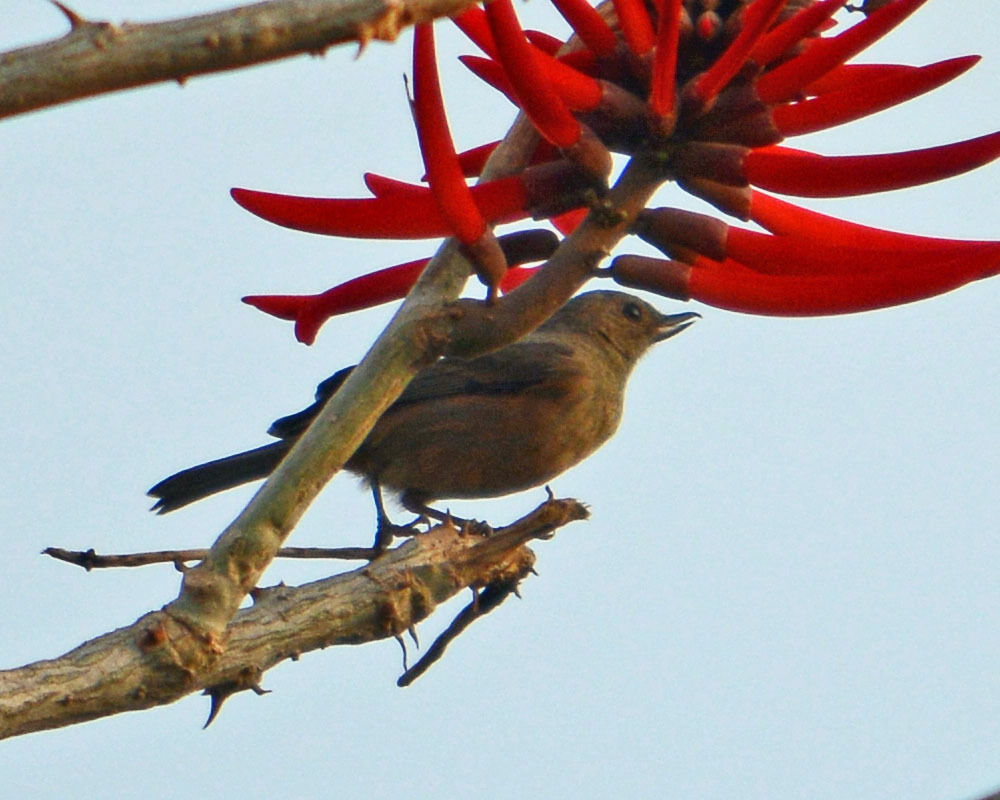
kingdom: Animalia
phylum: Chordata
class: Aves
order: Passeriformes
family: Thraupidae
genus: Diglossa
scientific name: Diglossa baritula
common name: Cinnamon-bellied flowerpiercer
